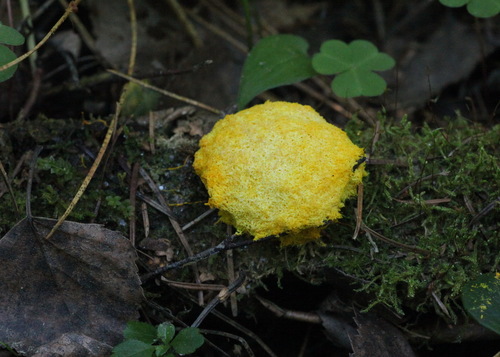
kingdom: Protozoa
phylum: Mycetozoa
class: Myxomycetes
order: Physarales
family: Physaraceae
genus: Fuligo
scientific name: Fuligo septica
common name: Dog vomit slime mold
